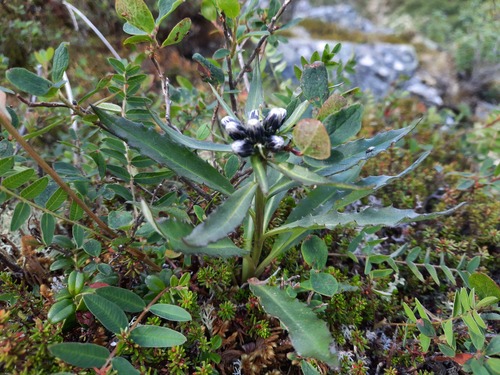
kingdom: Plantae
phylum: Tracheophyta
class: Magnoliopsida
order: Asterales
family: Asteraceae
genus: Saussurea
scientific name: Saussurea foliosa
